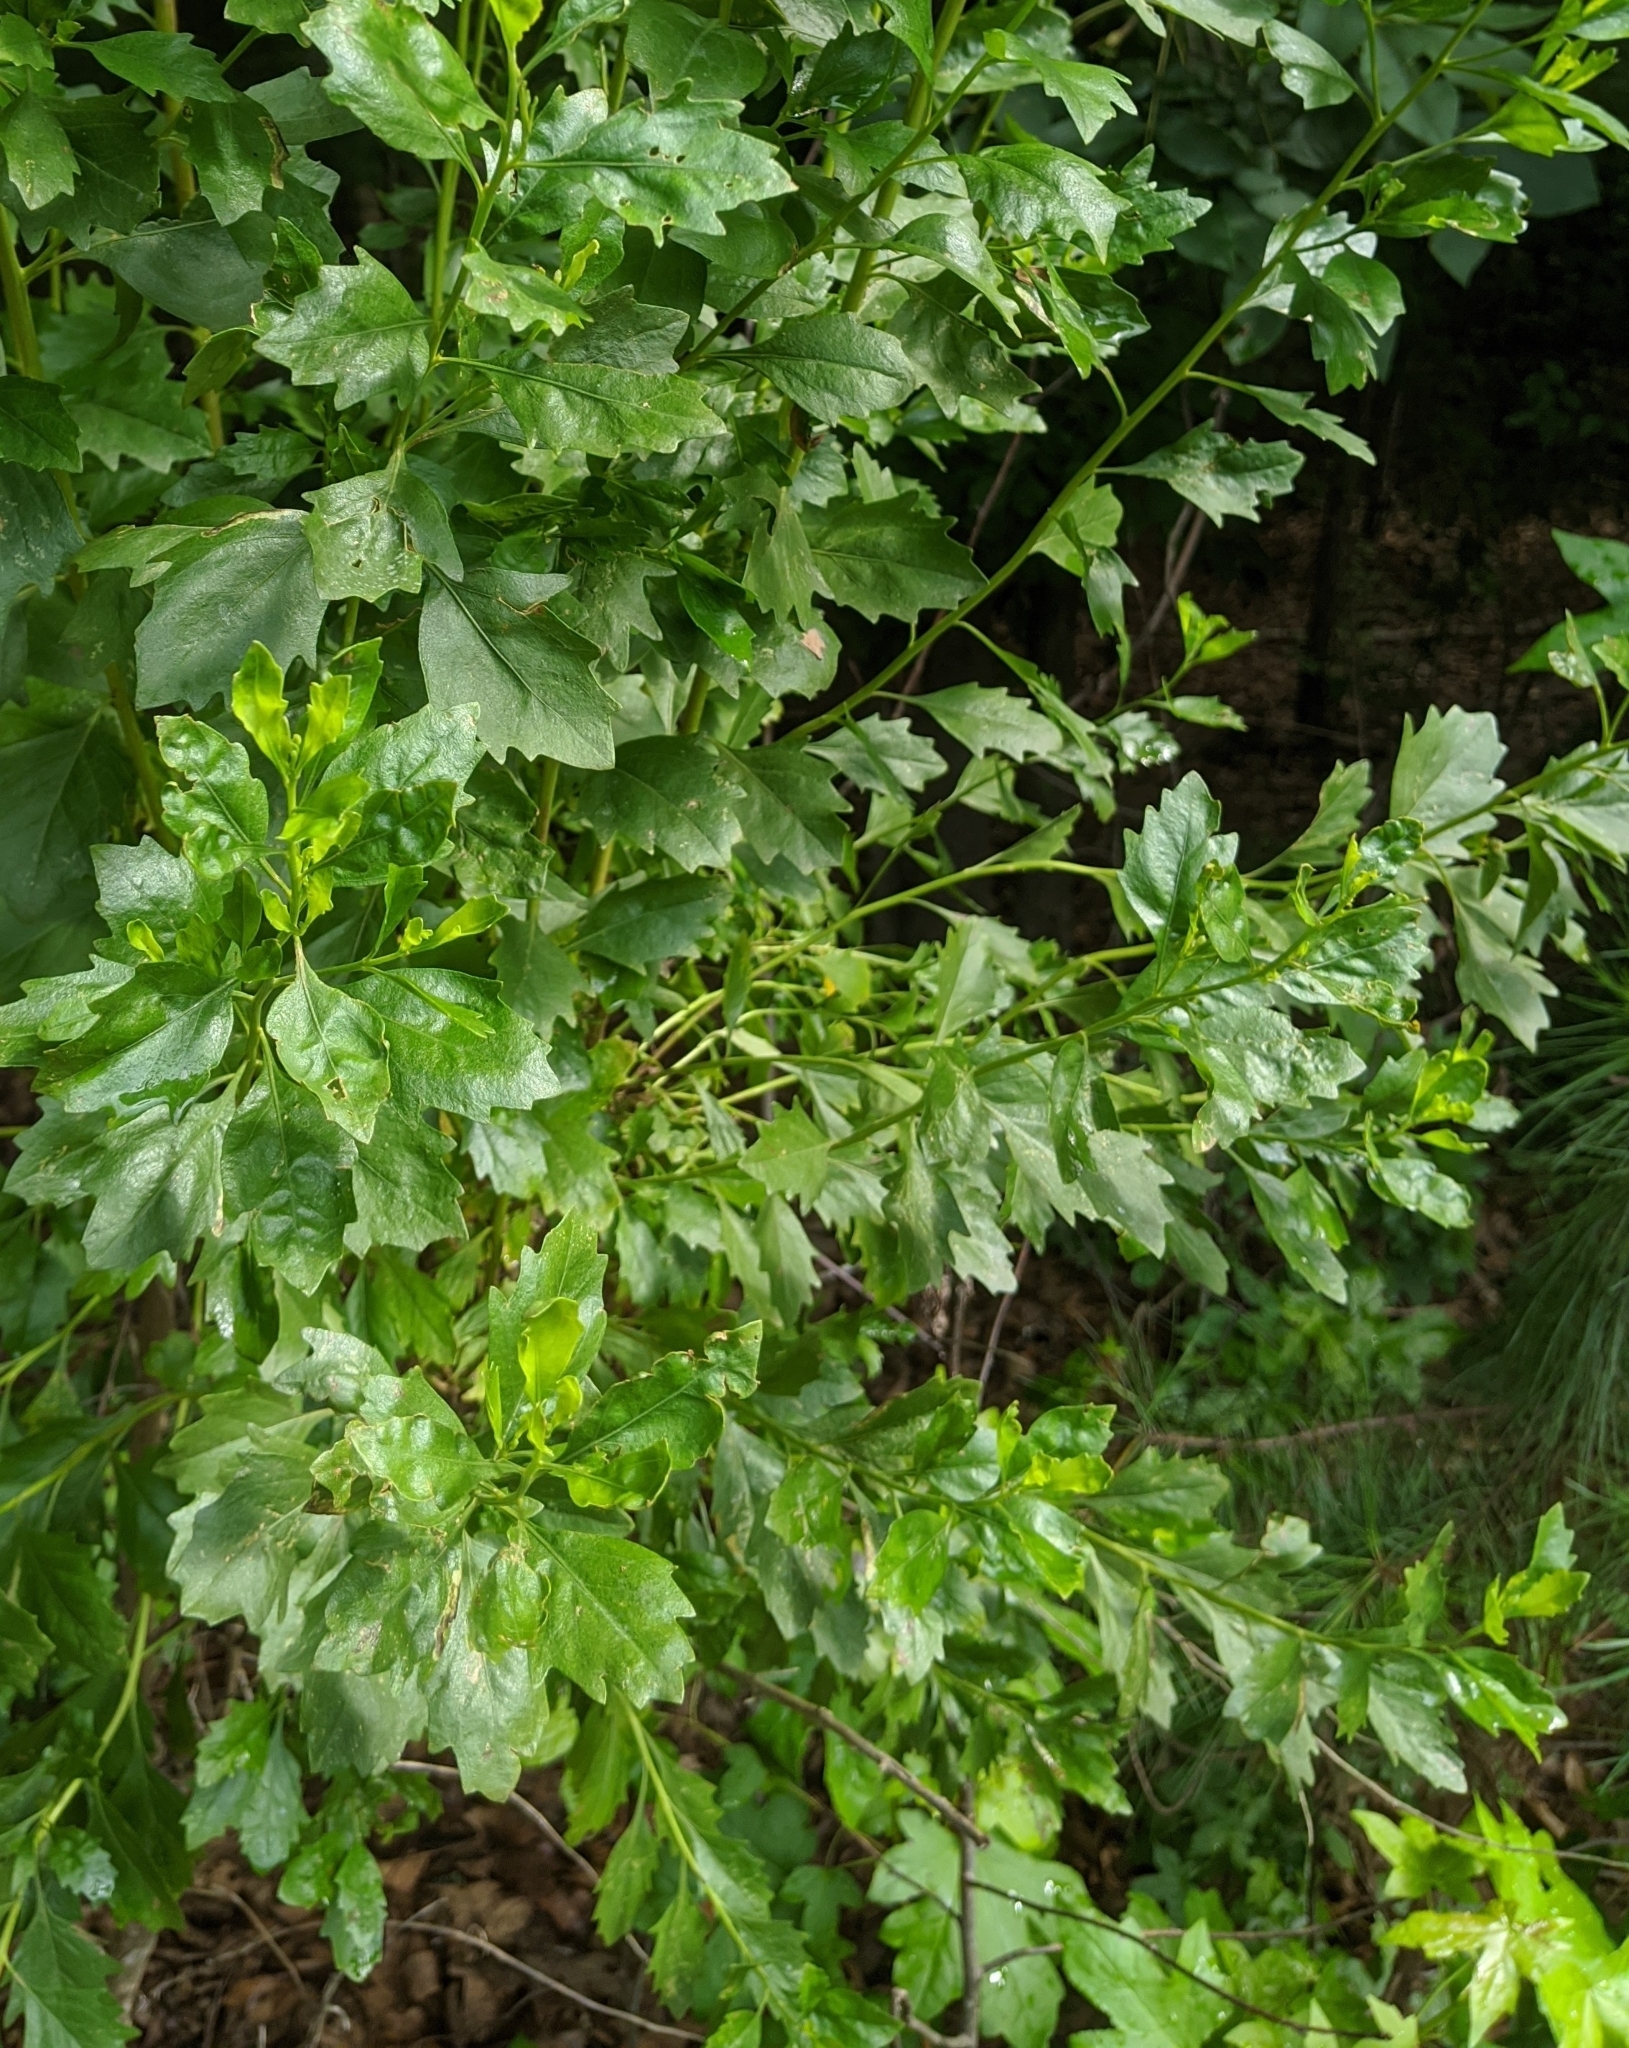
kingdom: Plantae
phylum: Tracheophyta
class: Magnoliopsida
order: Asterales
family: Asteraceae
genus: Baccharis
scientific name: Baccharis halimifolia
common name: Eastern baccharis
